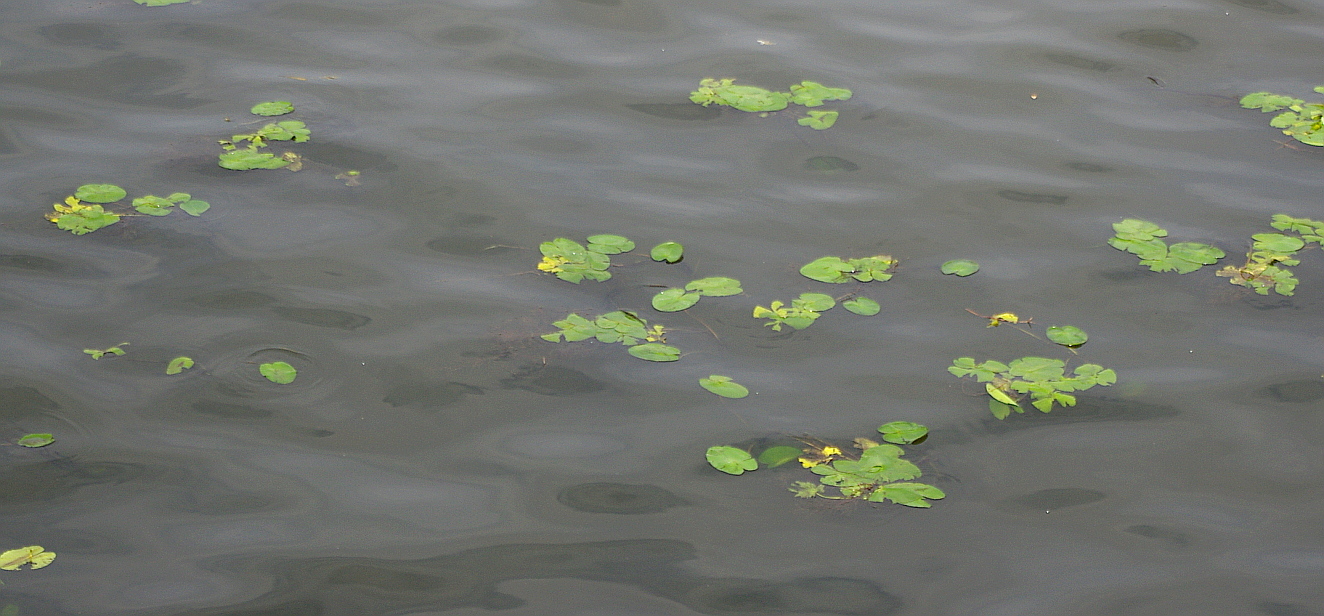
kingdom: Plantae
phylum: Tracheophyta
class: Magnoliopsida
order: Nymphaeales
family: Nymphaeaceae
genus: Nuphar
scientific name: Nuphar lutea
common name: Yellow water-lily
